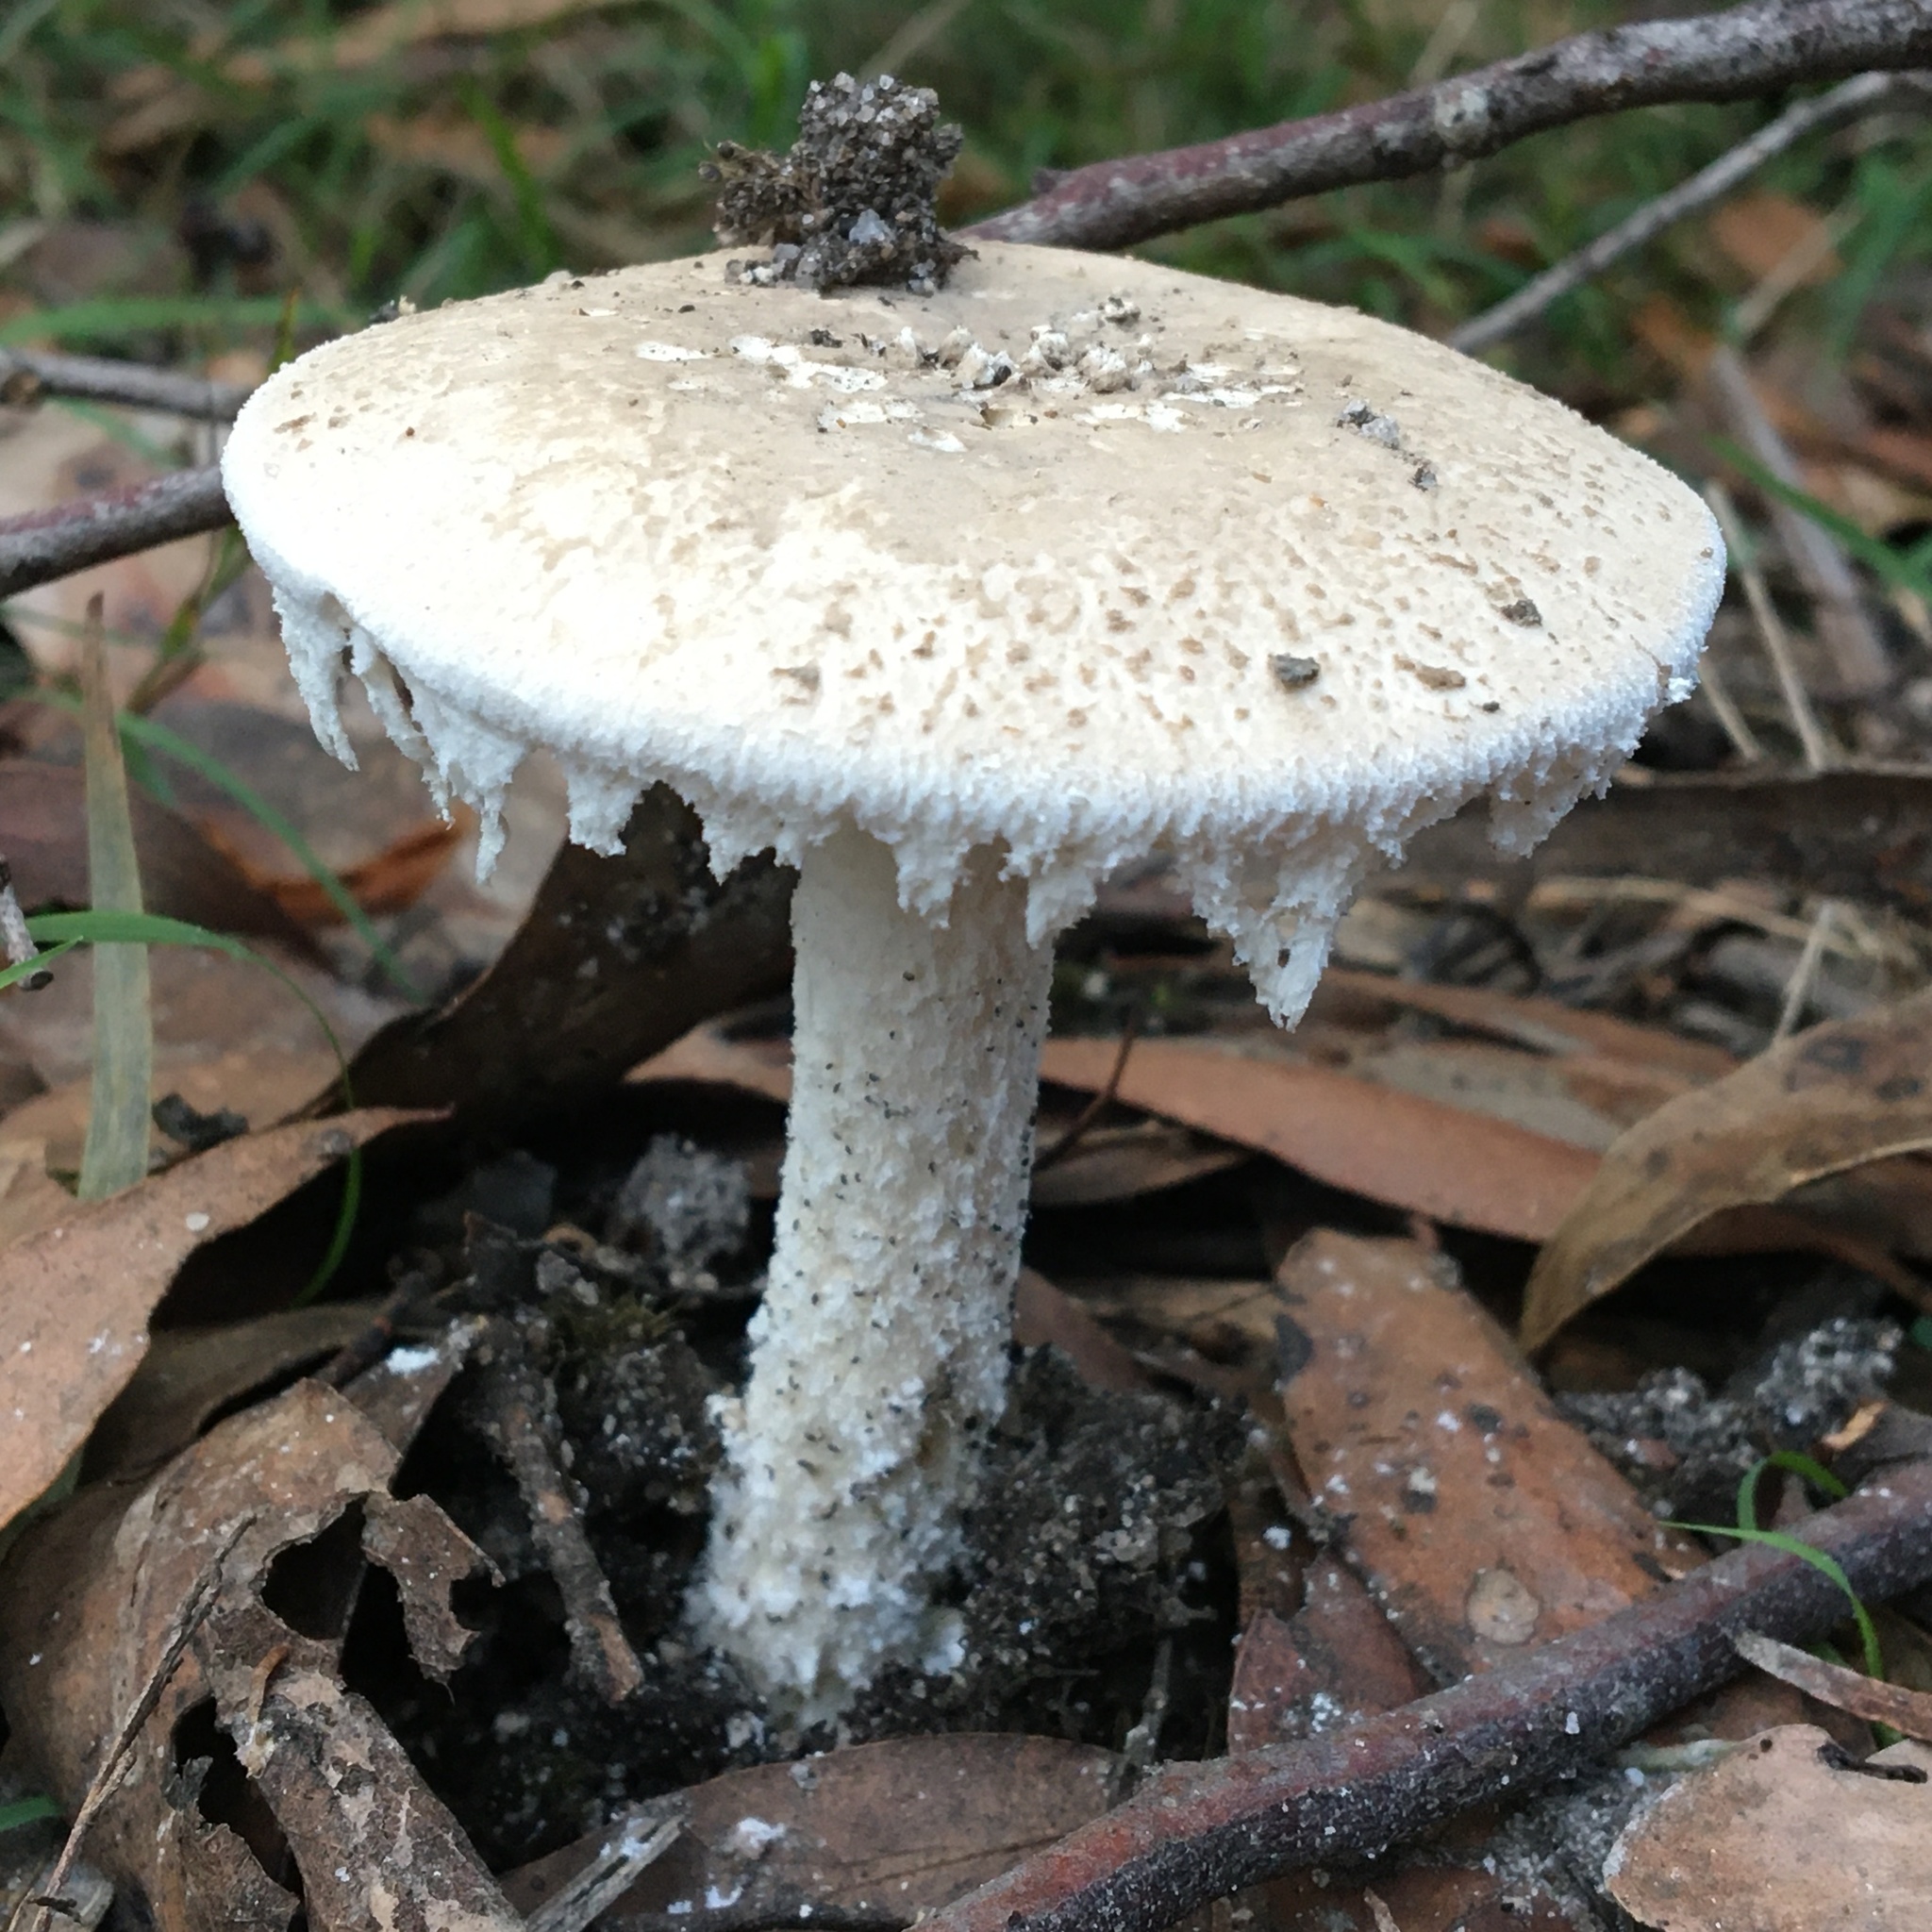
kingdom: Fungi
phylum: Basidiomycota
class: Agaricomycetes
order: Agaricales
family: Amanitaceae
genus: Amanita
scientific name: Amanita farinacea
